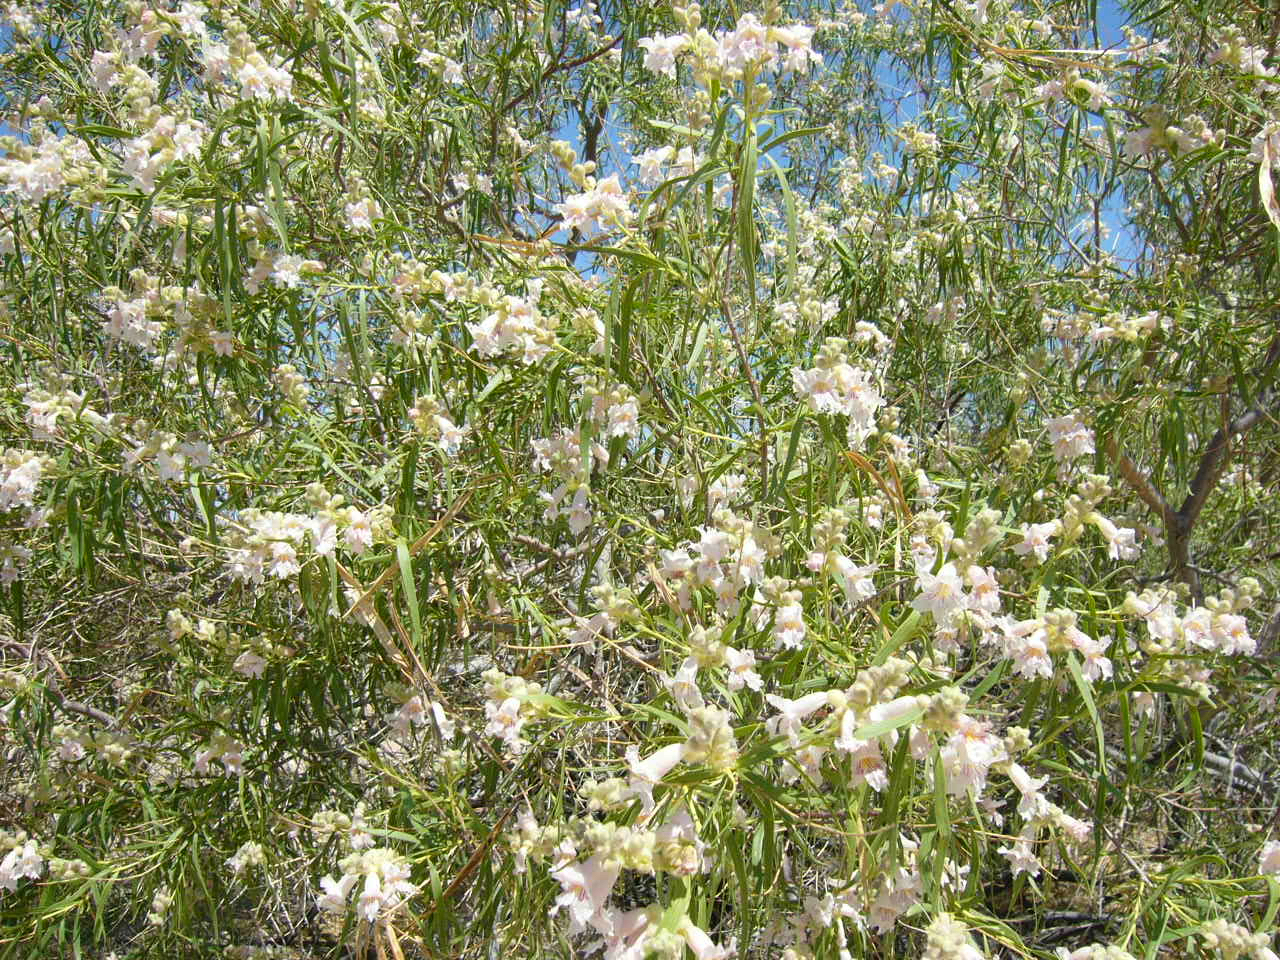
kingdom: Plantae
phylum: Tracheophyta
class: Magnoliopsida
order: Lamiales
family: Bignoniaceae
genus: Chilopsis
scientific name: Chilopsis linearis
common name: Desert-willow
